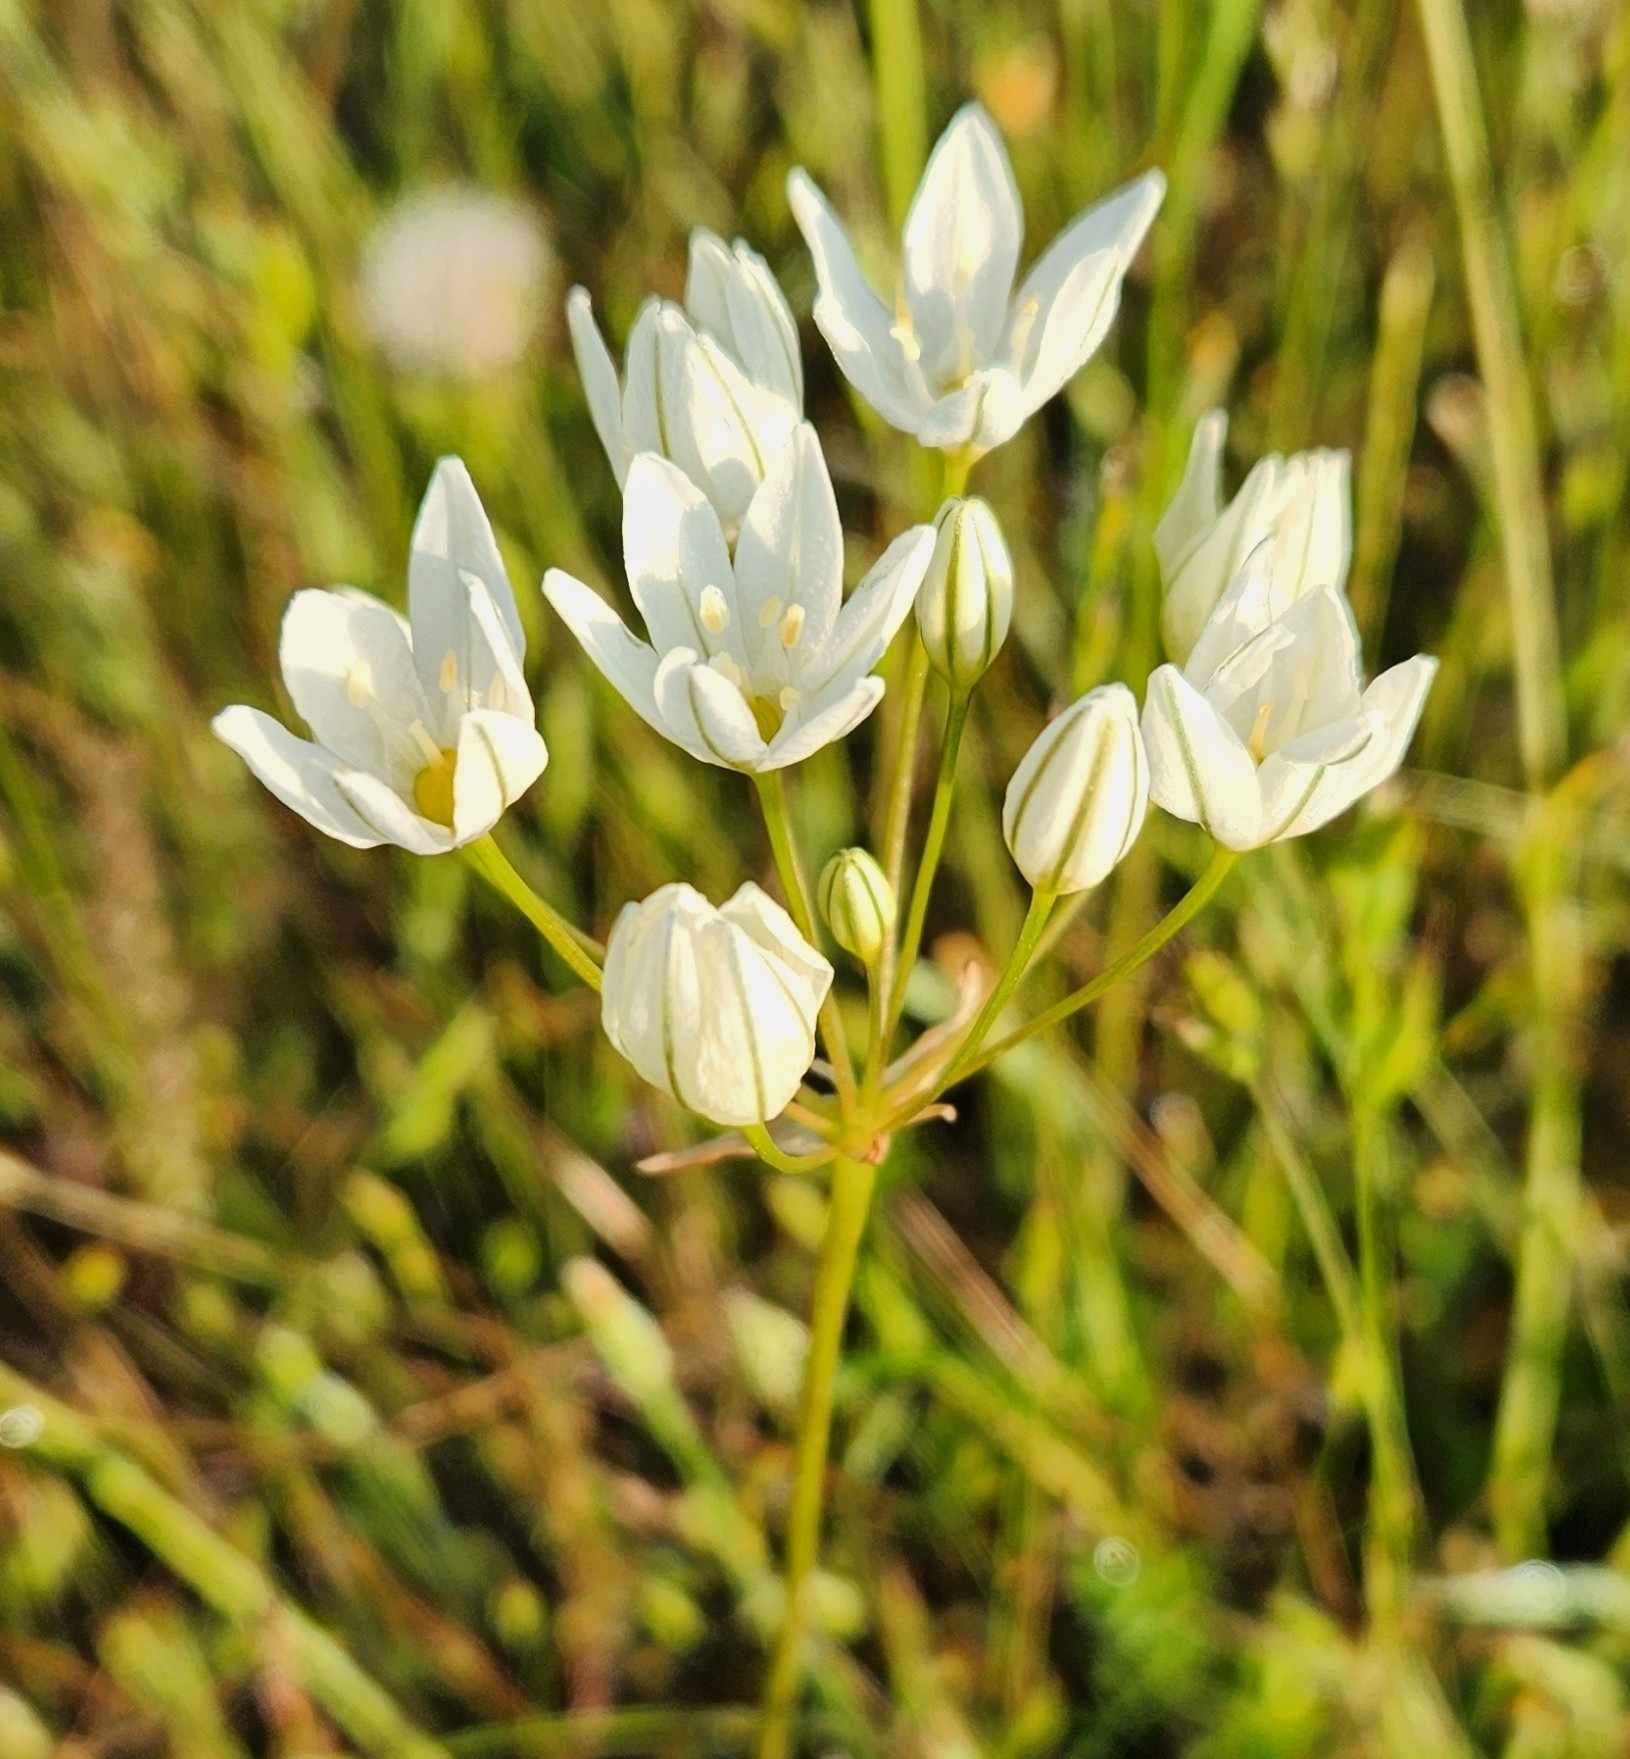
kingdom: Plantae
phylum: Tracheophyta
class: Liliopsida
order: Asparagales
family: Asparagaceae
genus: Triteleia
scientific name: Triteleia hyacinthina
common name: White brodiaea
